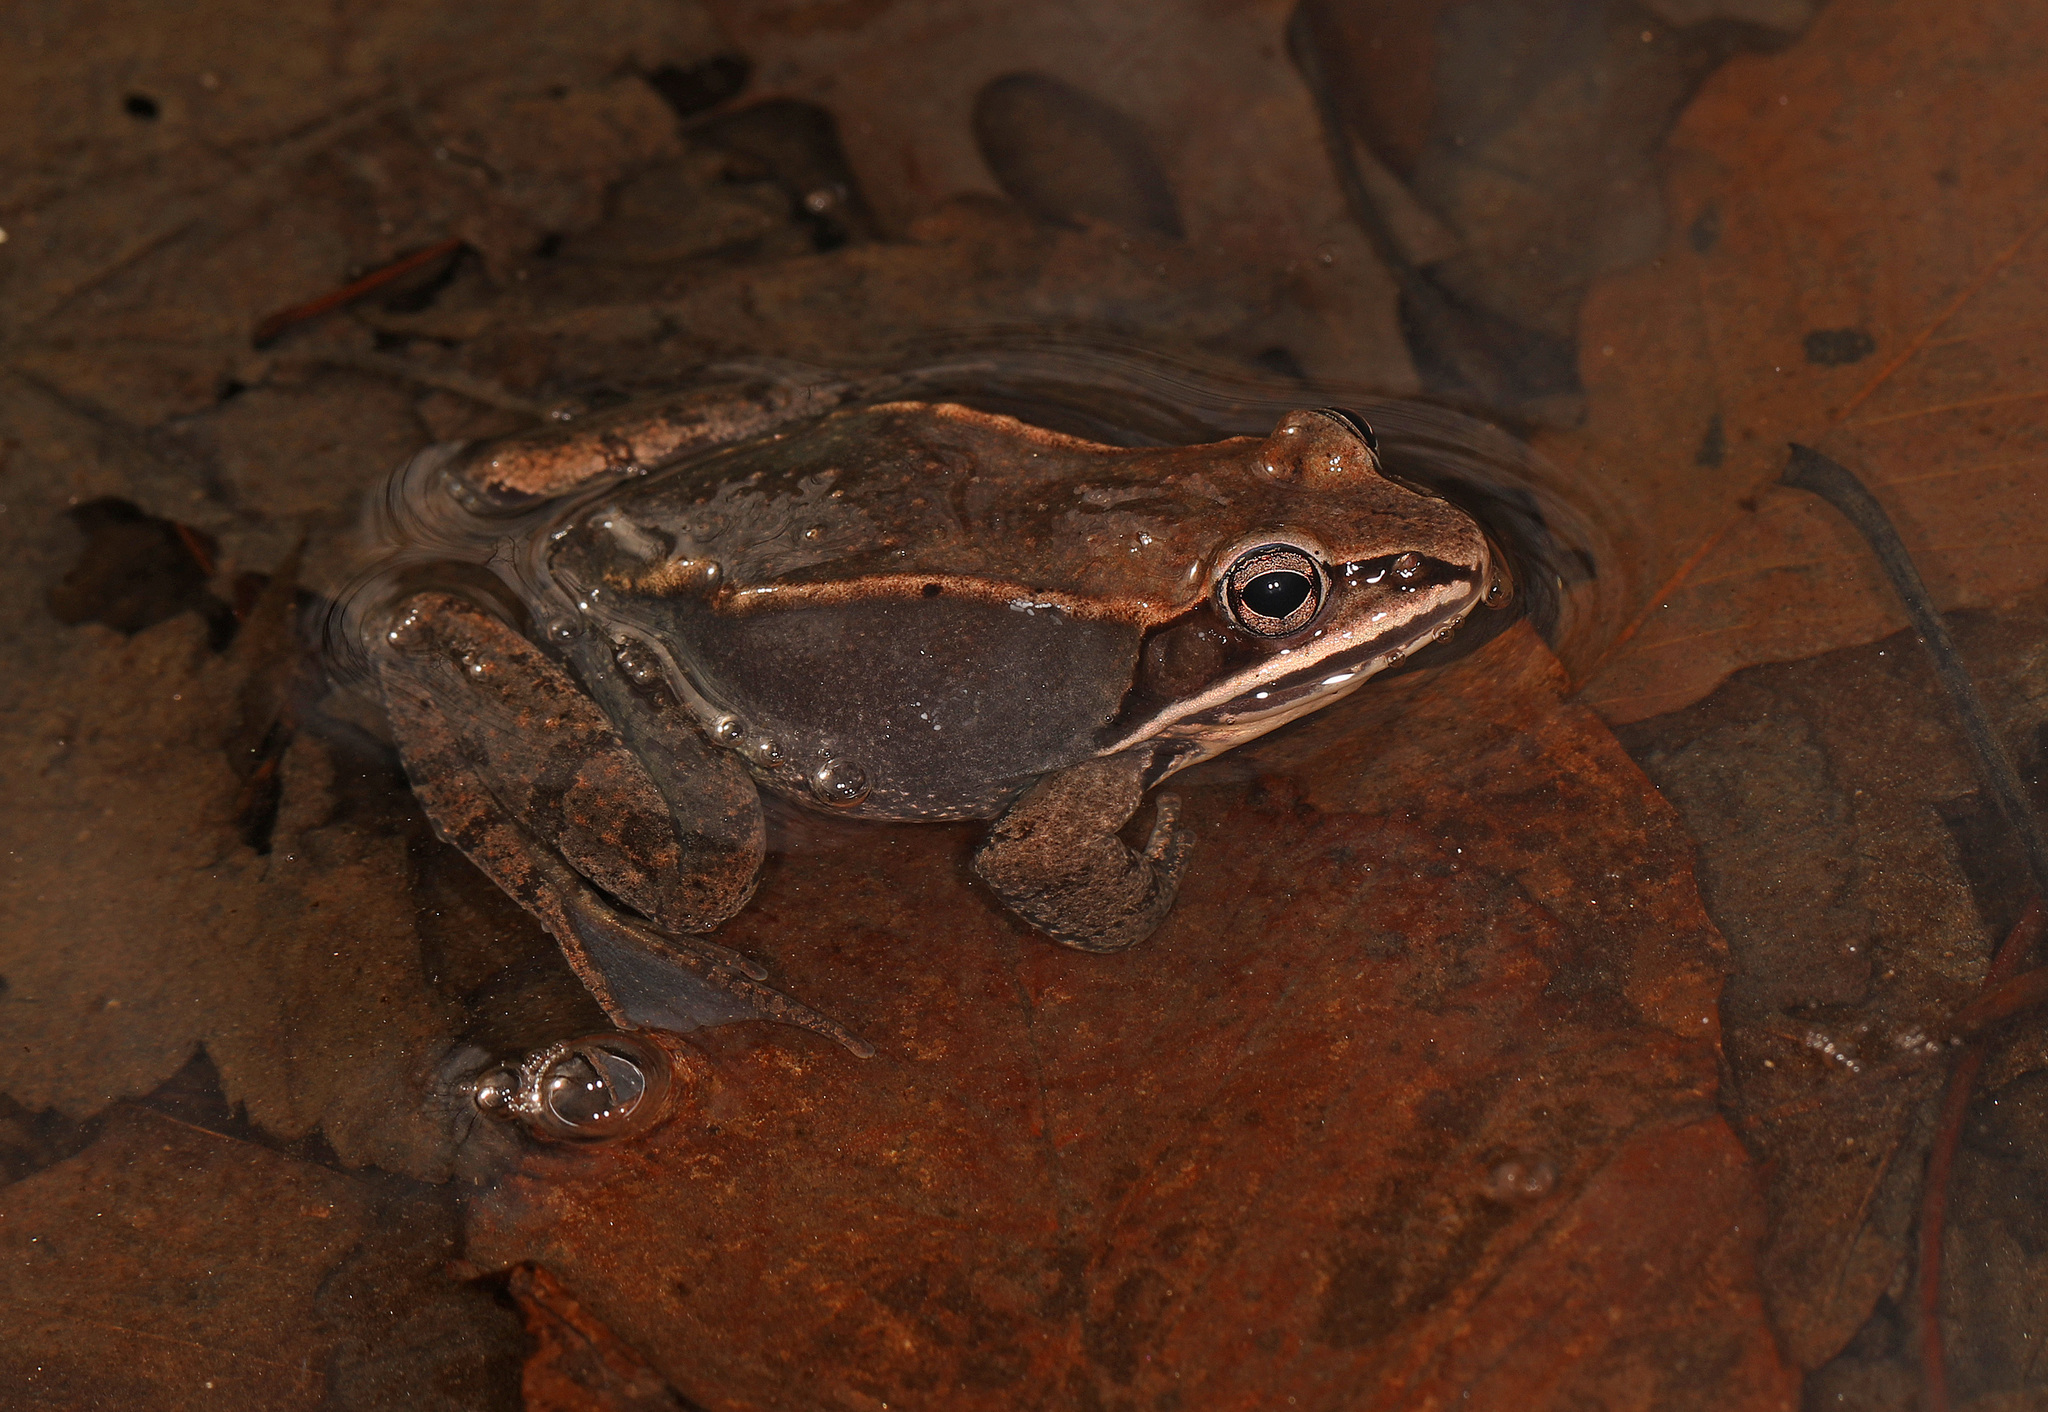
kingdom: Animalia
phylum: Chordata
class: Amphibia
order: Anura
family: Ranidae
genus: Lithobates
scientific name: Lithobates sylvaticus
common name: Wood frog
